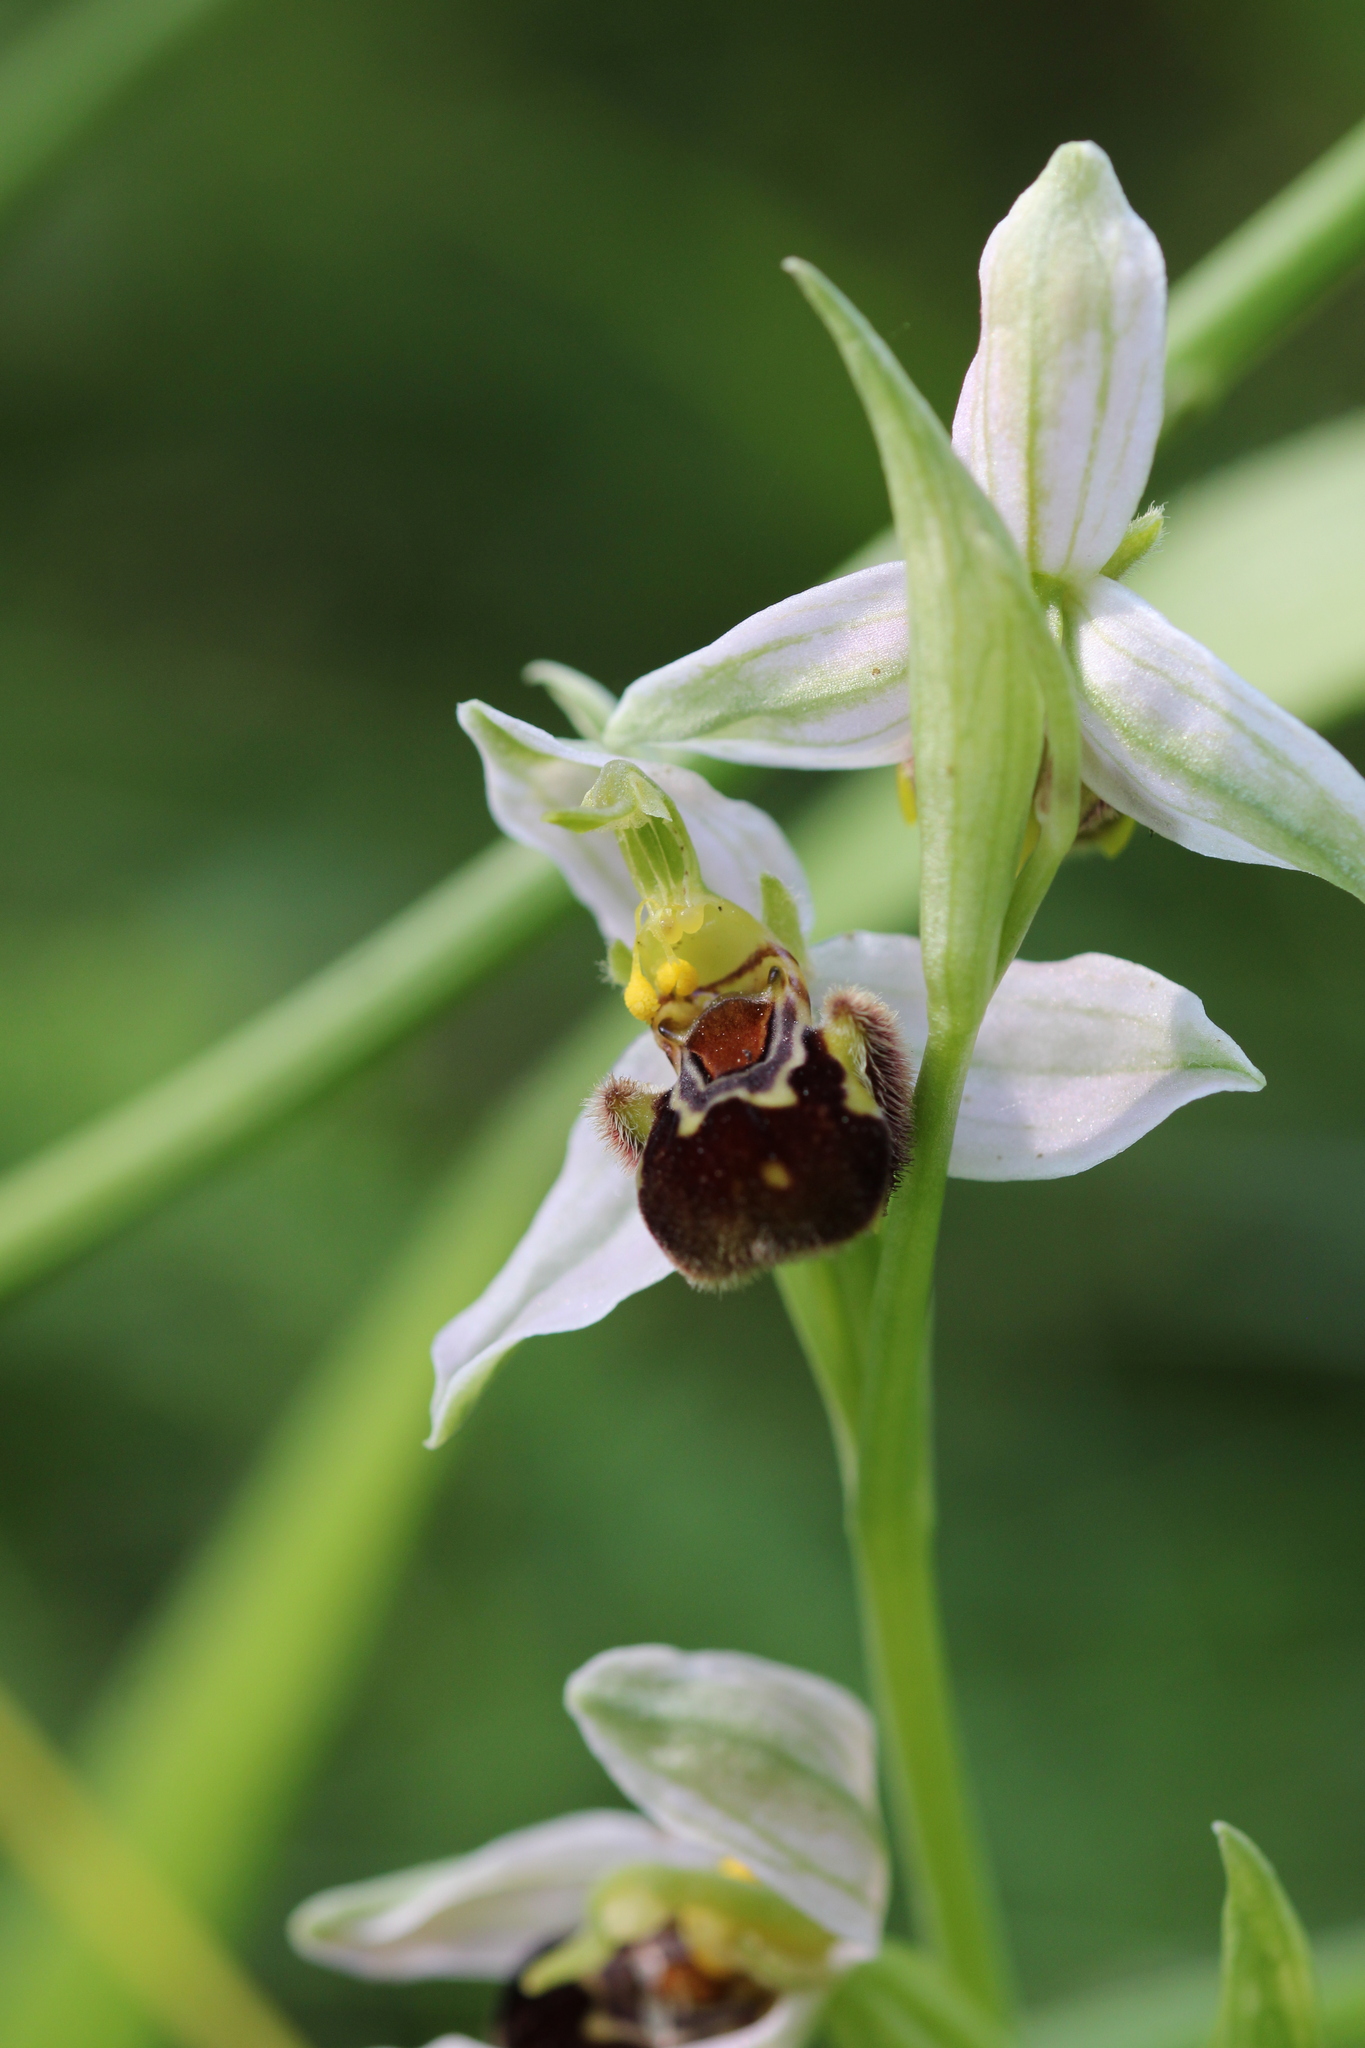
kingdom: Plantae
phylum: Tracheophyta
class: Liliopsida
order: Asparagales
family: Orchidaceae
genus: Ophrys
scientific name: Ophrys apifera
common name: Bee orchid
